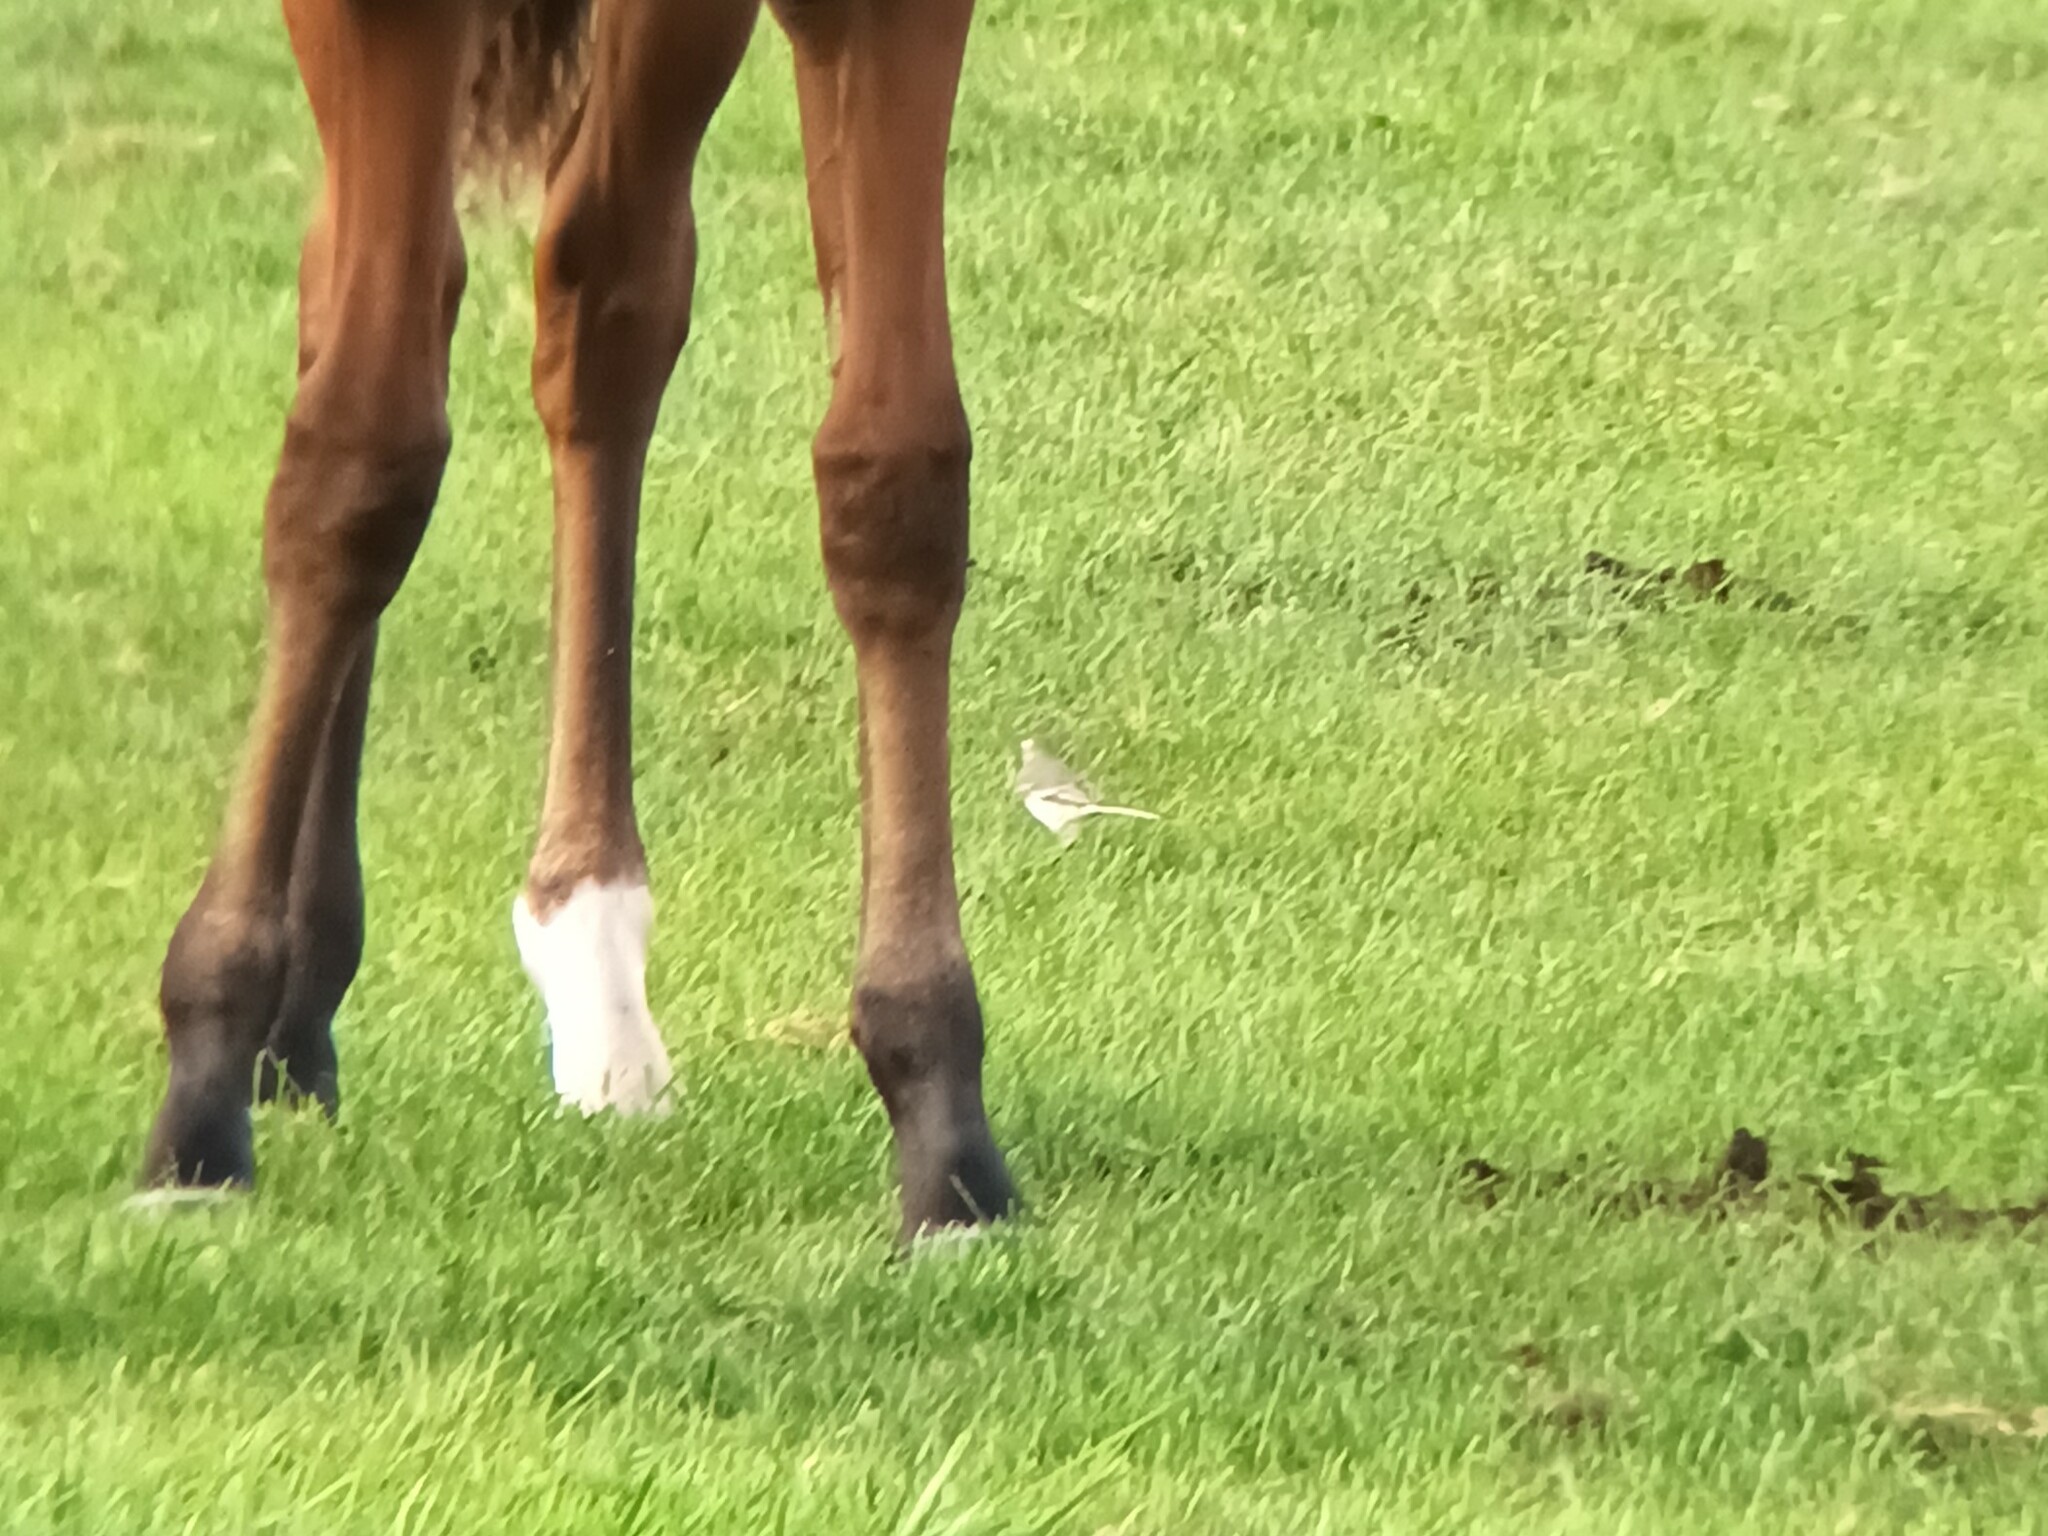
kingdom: Animalia
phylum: Chordata
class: Aves
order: Passeriformes
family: Motacillidae
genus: Motacilla
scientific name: Motacilla alba
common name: White wagtail
